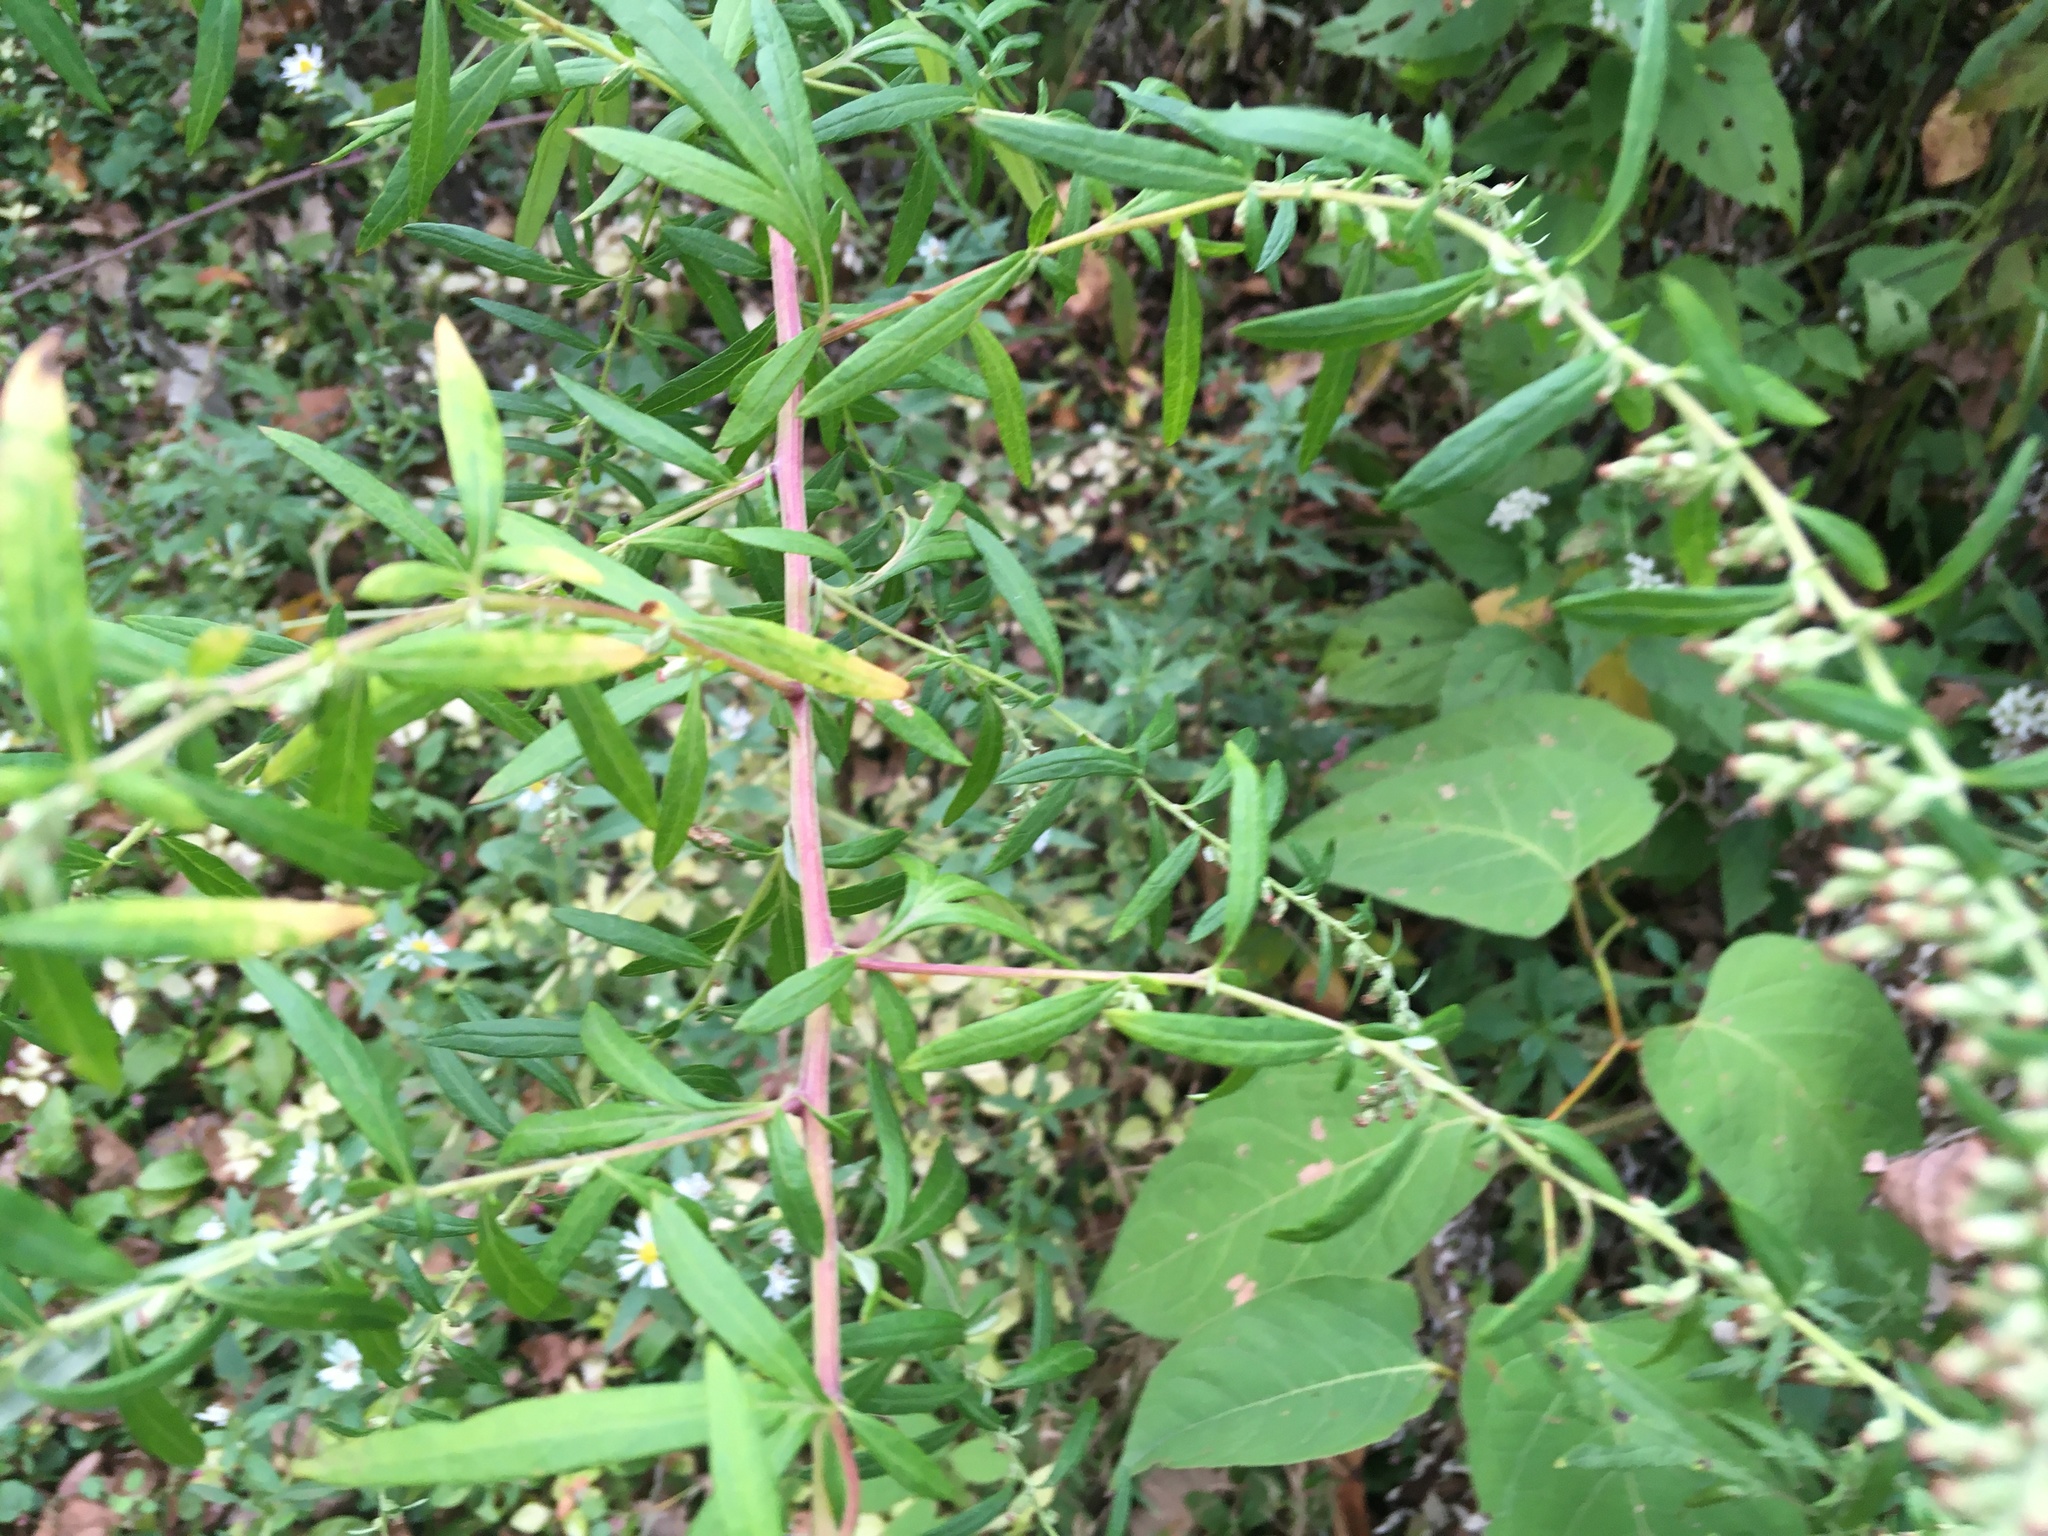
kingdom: Plantae
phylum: Tracheophyta
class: Magnoliopsida
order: Asterales
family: Asteraceae
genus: Artemisia
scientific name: Artemisia vulgaris
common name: Mugwort
